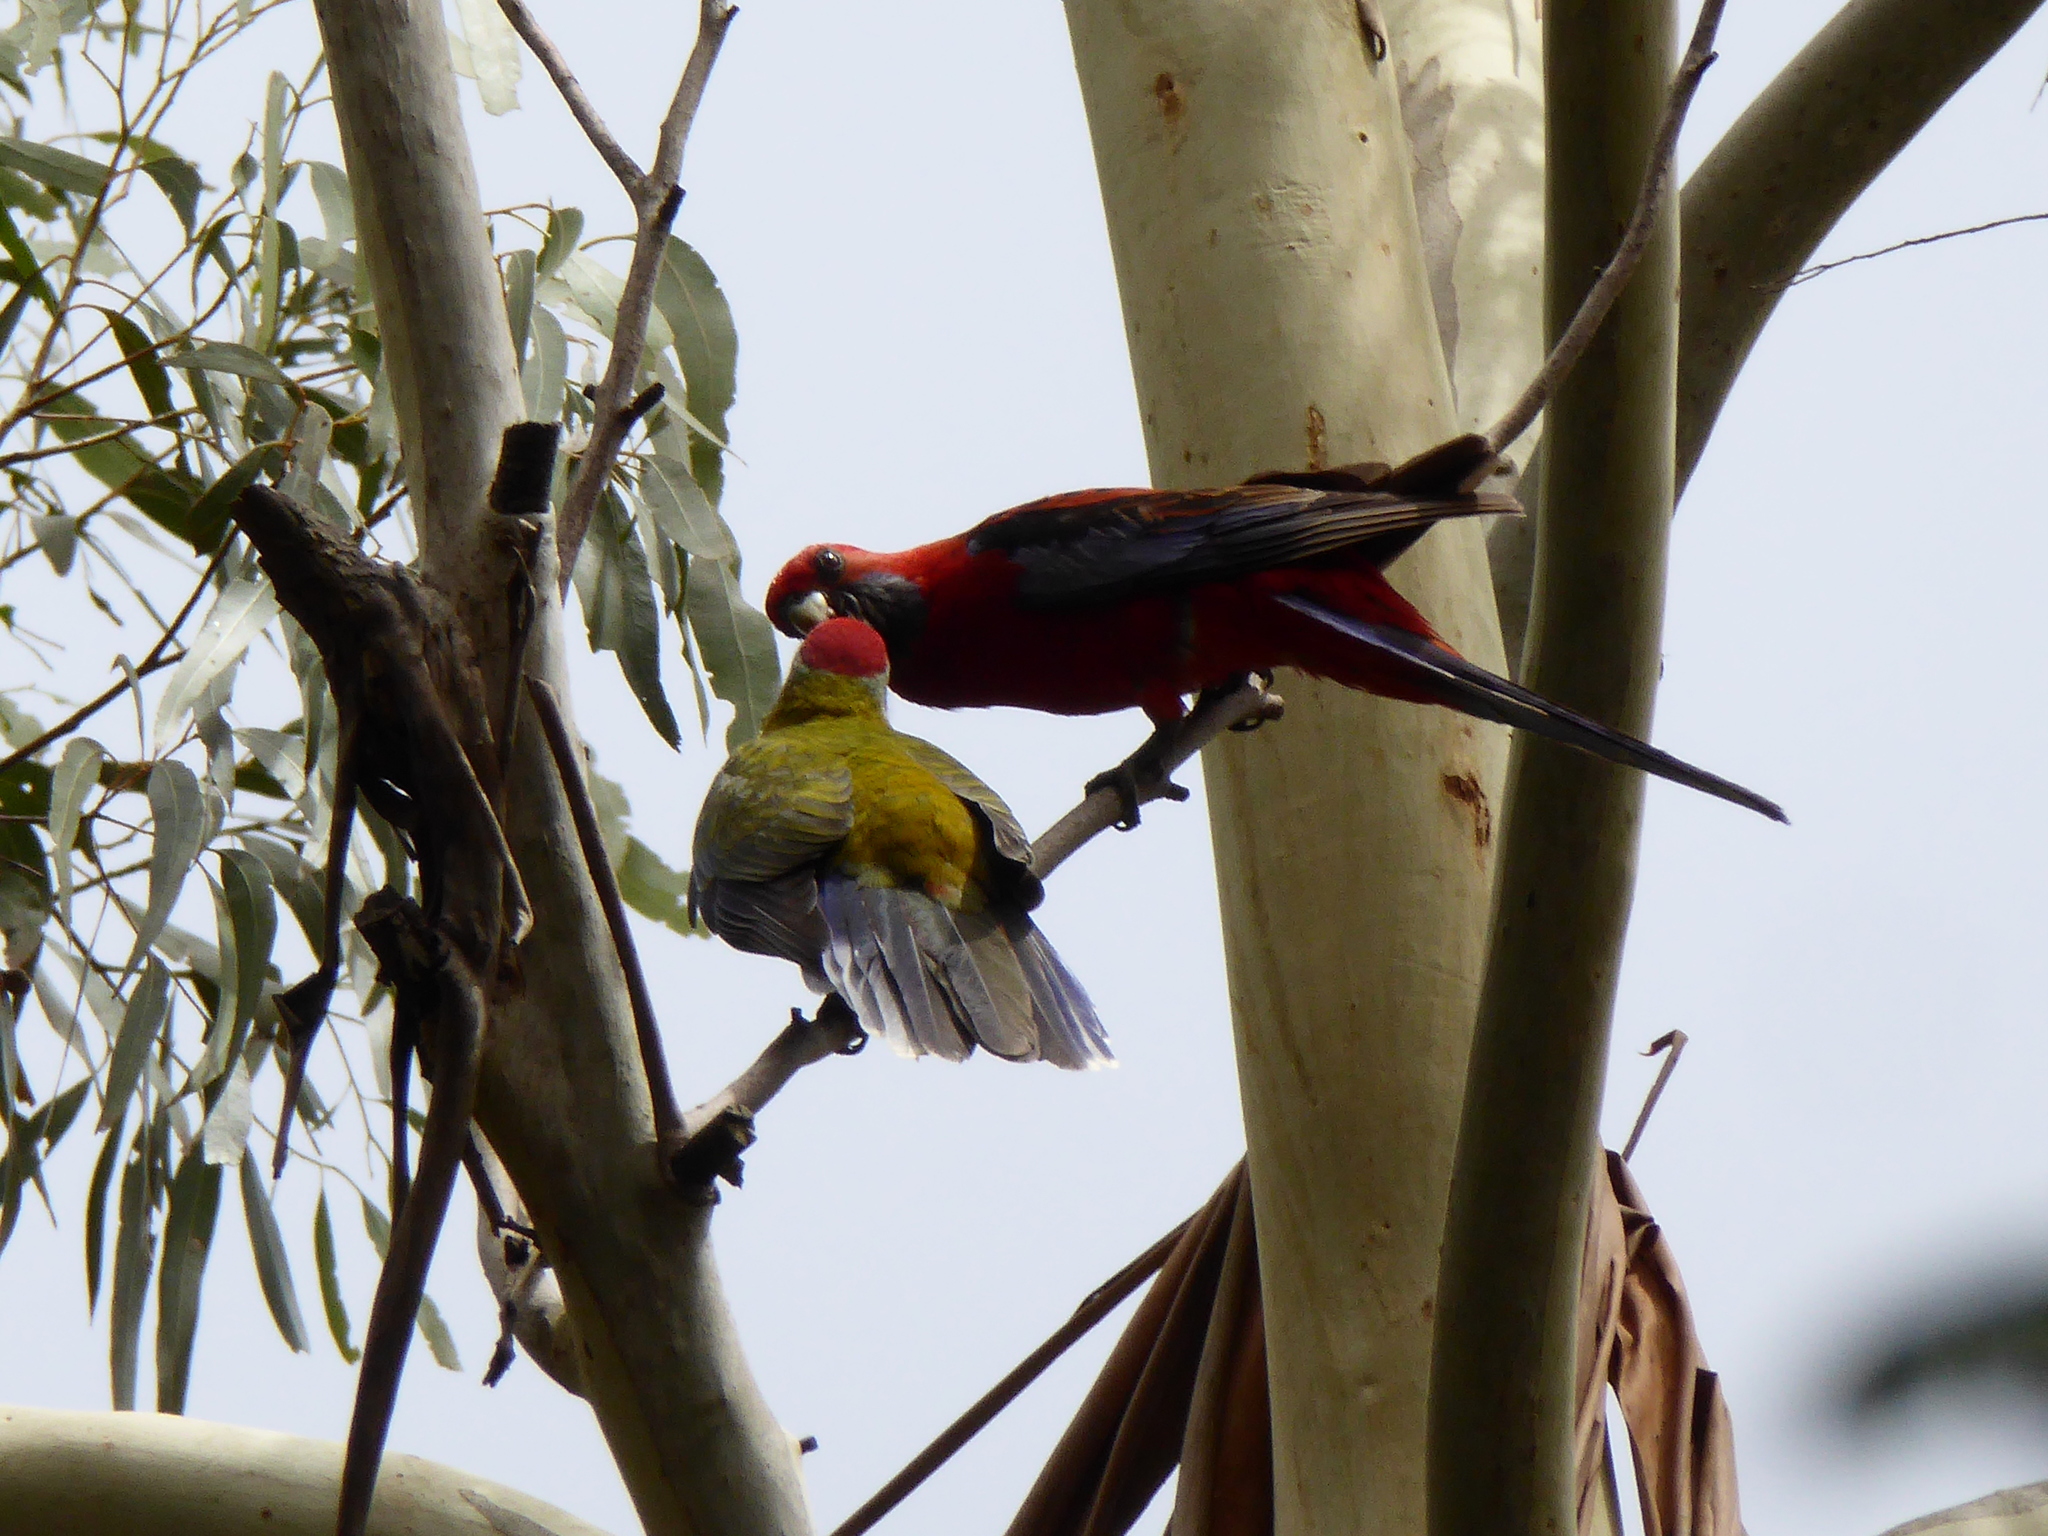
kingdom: Animalia
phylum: Chordata
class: Aves
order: Psittaciformes
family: Psittacidae
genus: Platycercus
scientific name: Platycercus elegans
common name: Crimson rosella
